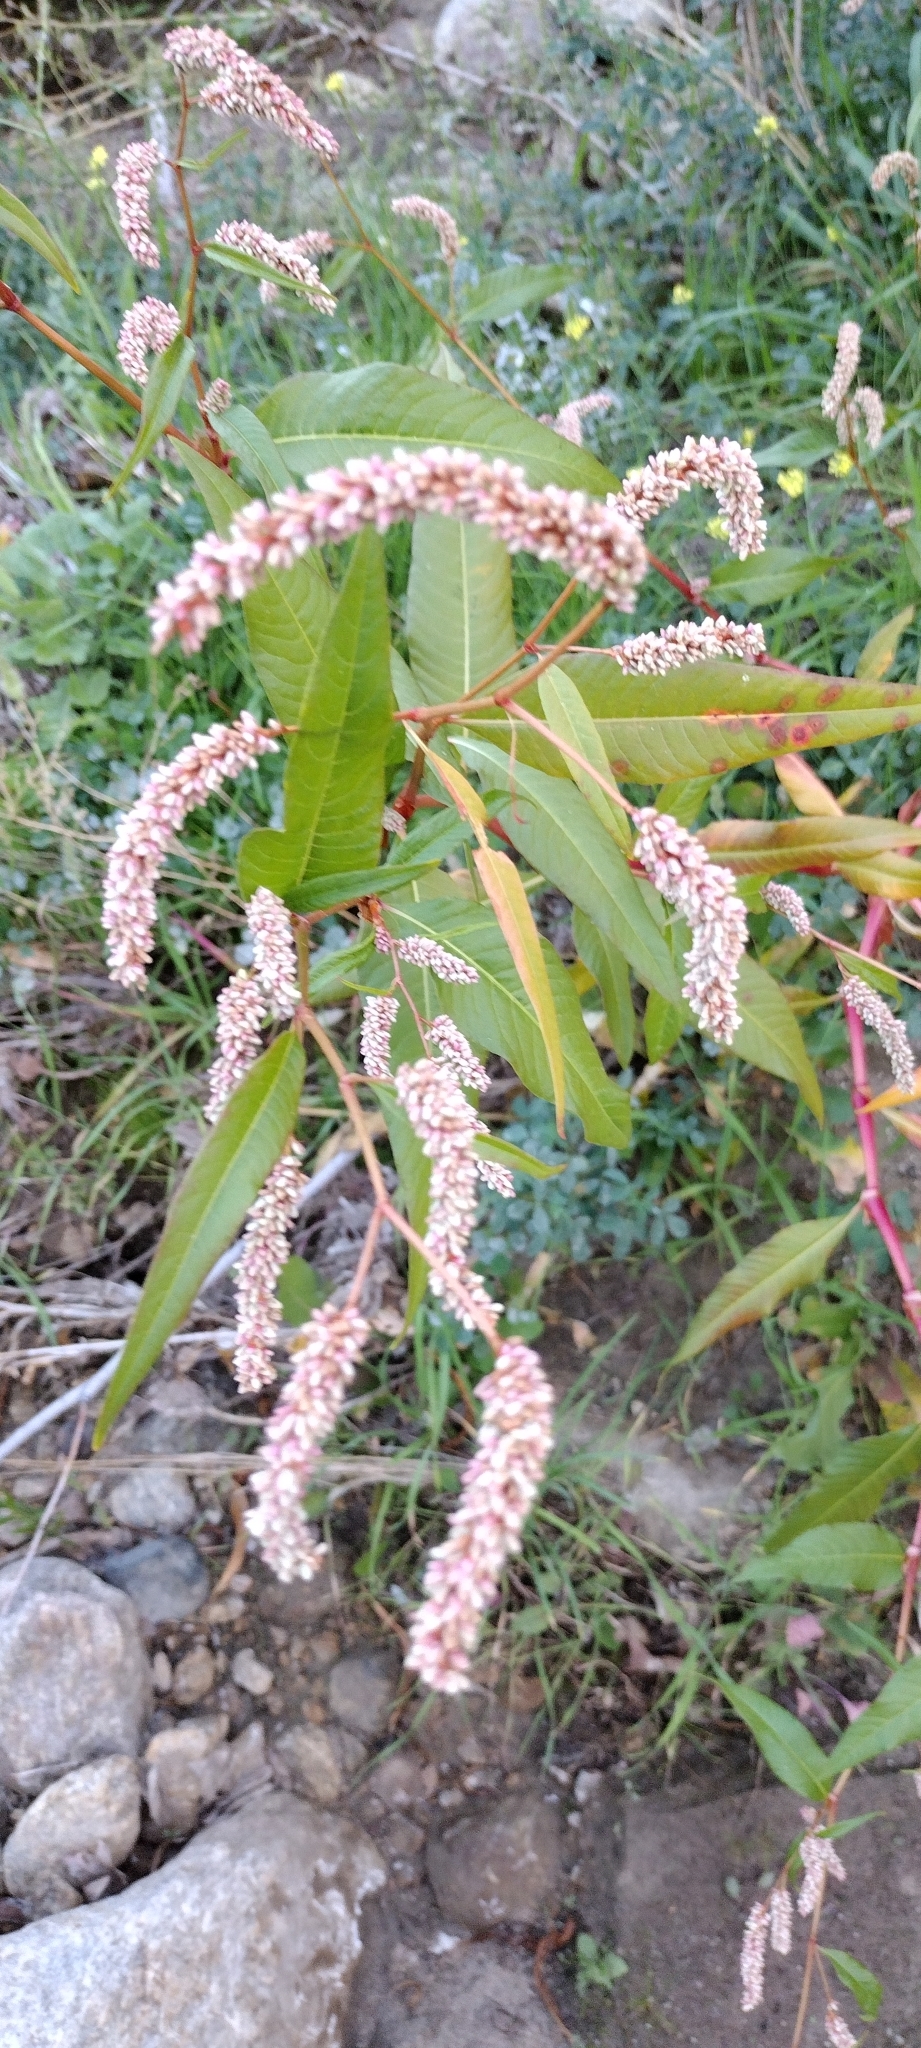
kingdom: Plantae
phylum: Tracheophyta
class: Magnoliopsida
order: Caryophyllales
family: Polygonaceae
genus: Persicaria
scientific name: Persicaria lapathifolia
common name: Curlytop knotweed
